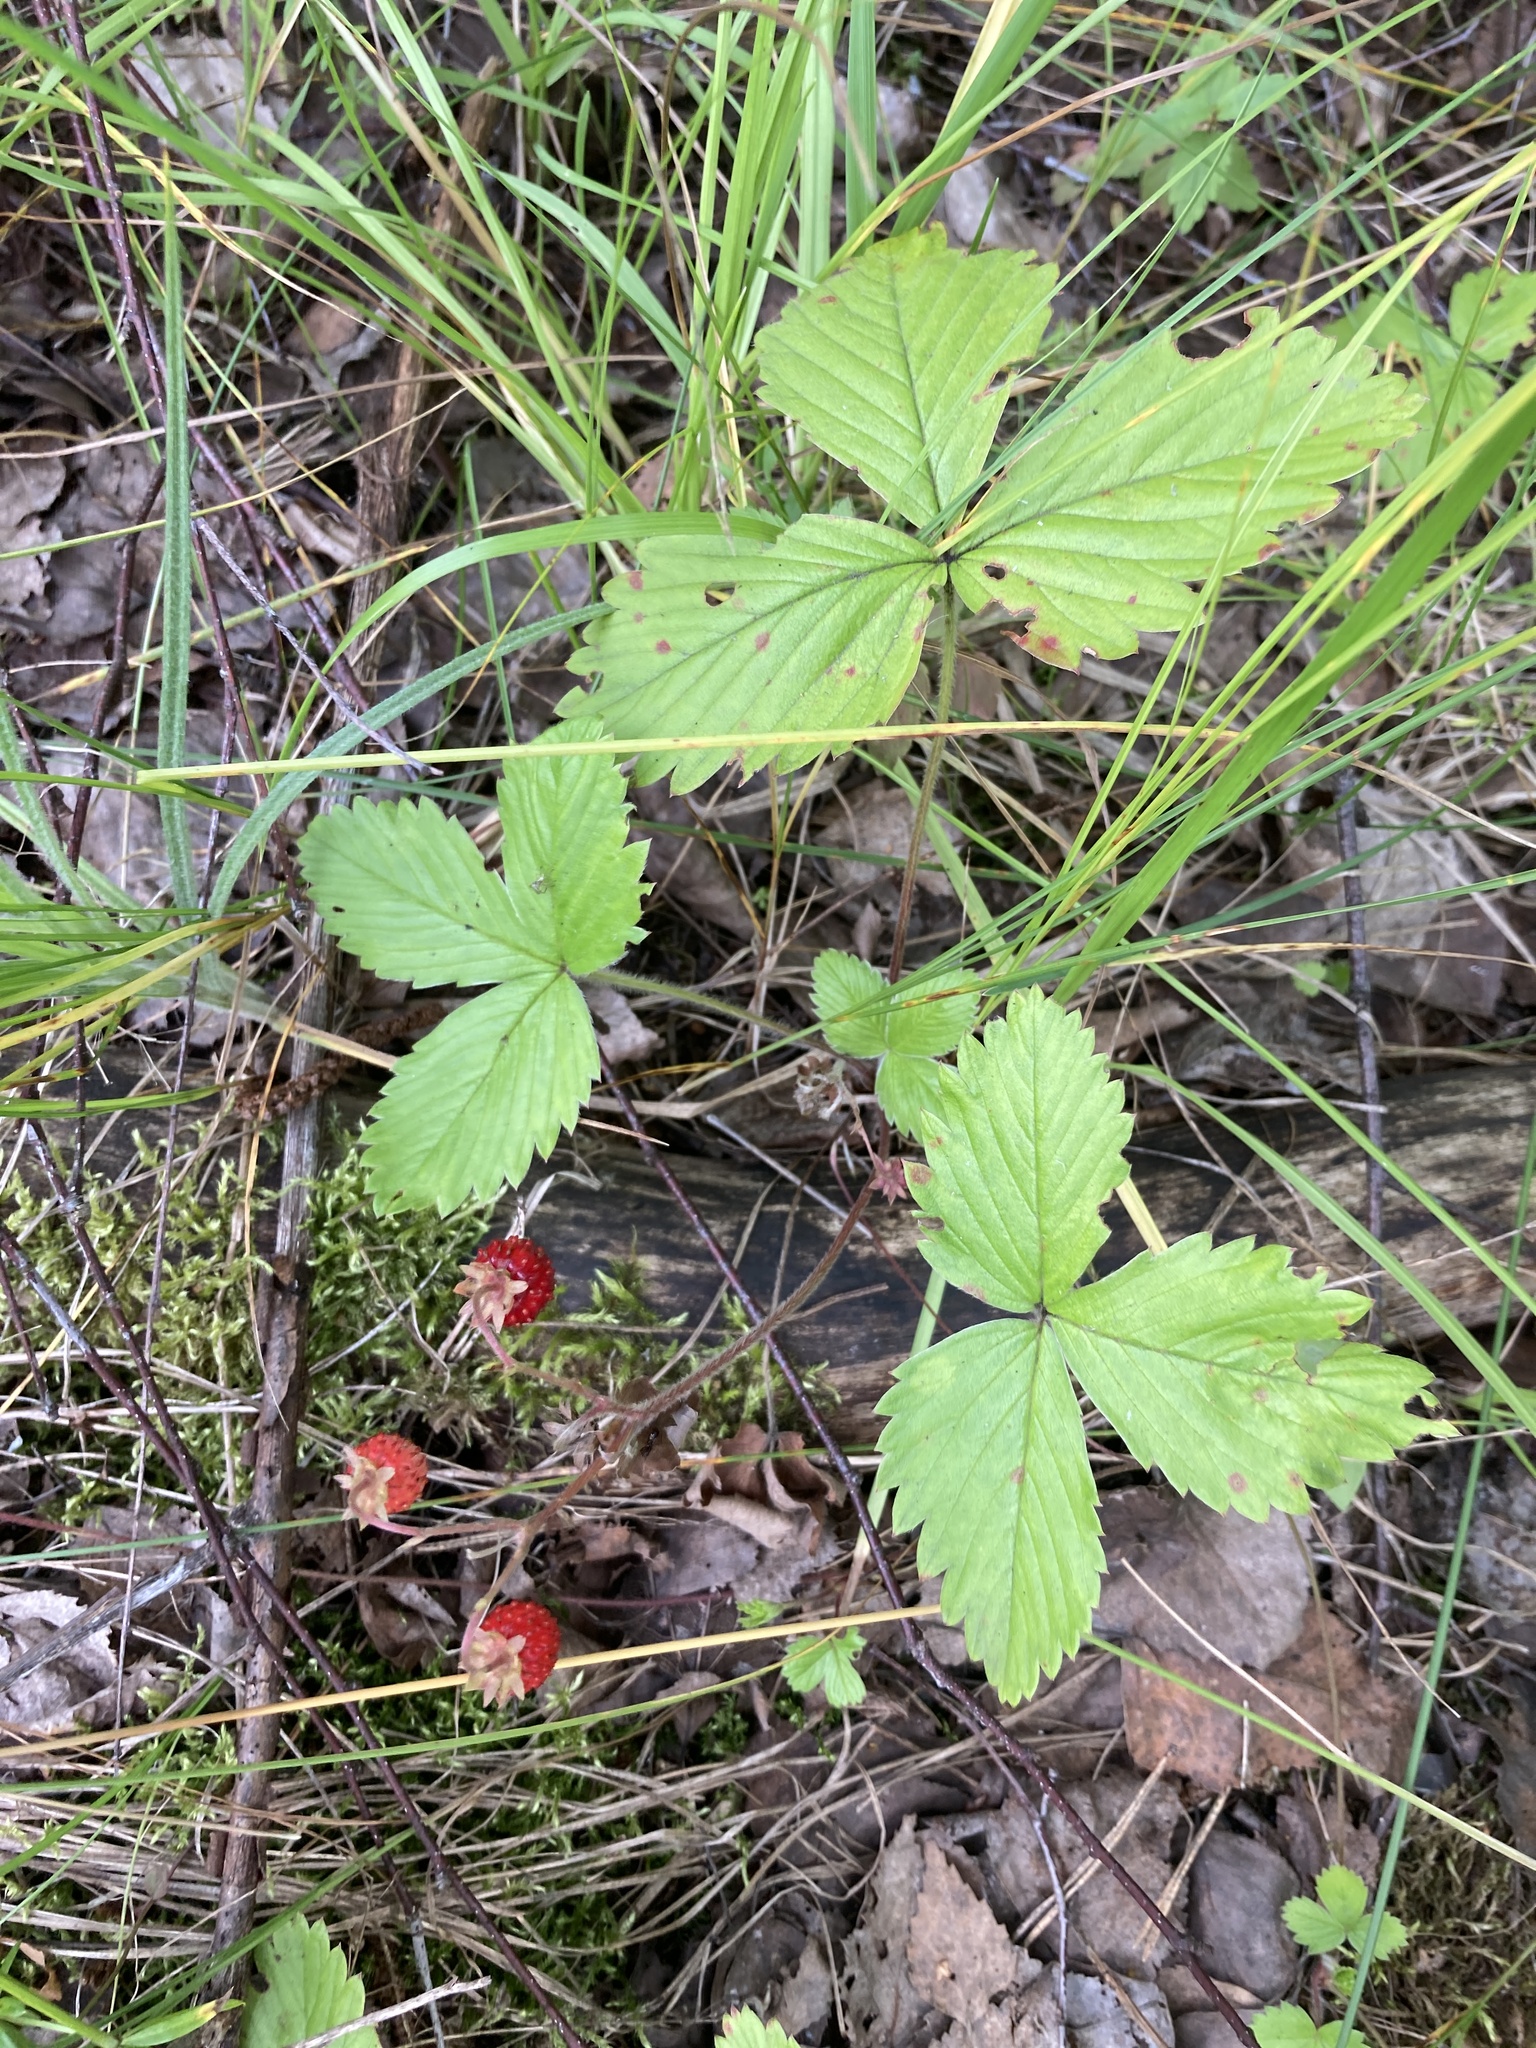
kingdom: Plantae
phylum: Tracheophyta
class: Magnoliopsida
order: Rosales
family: Rosaceae
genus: Fragaria
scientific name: Fragaria vesca
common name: Wild strawberry
